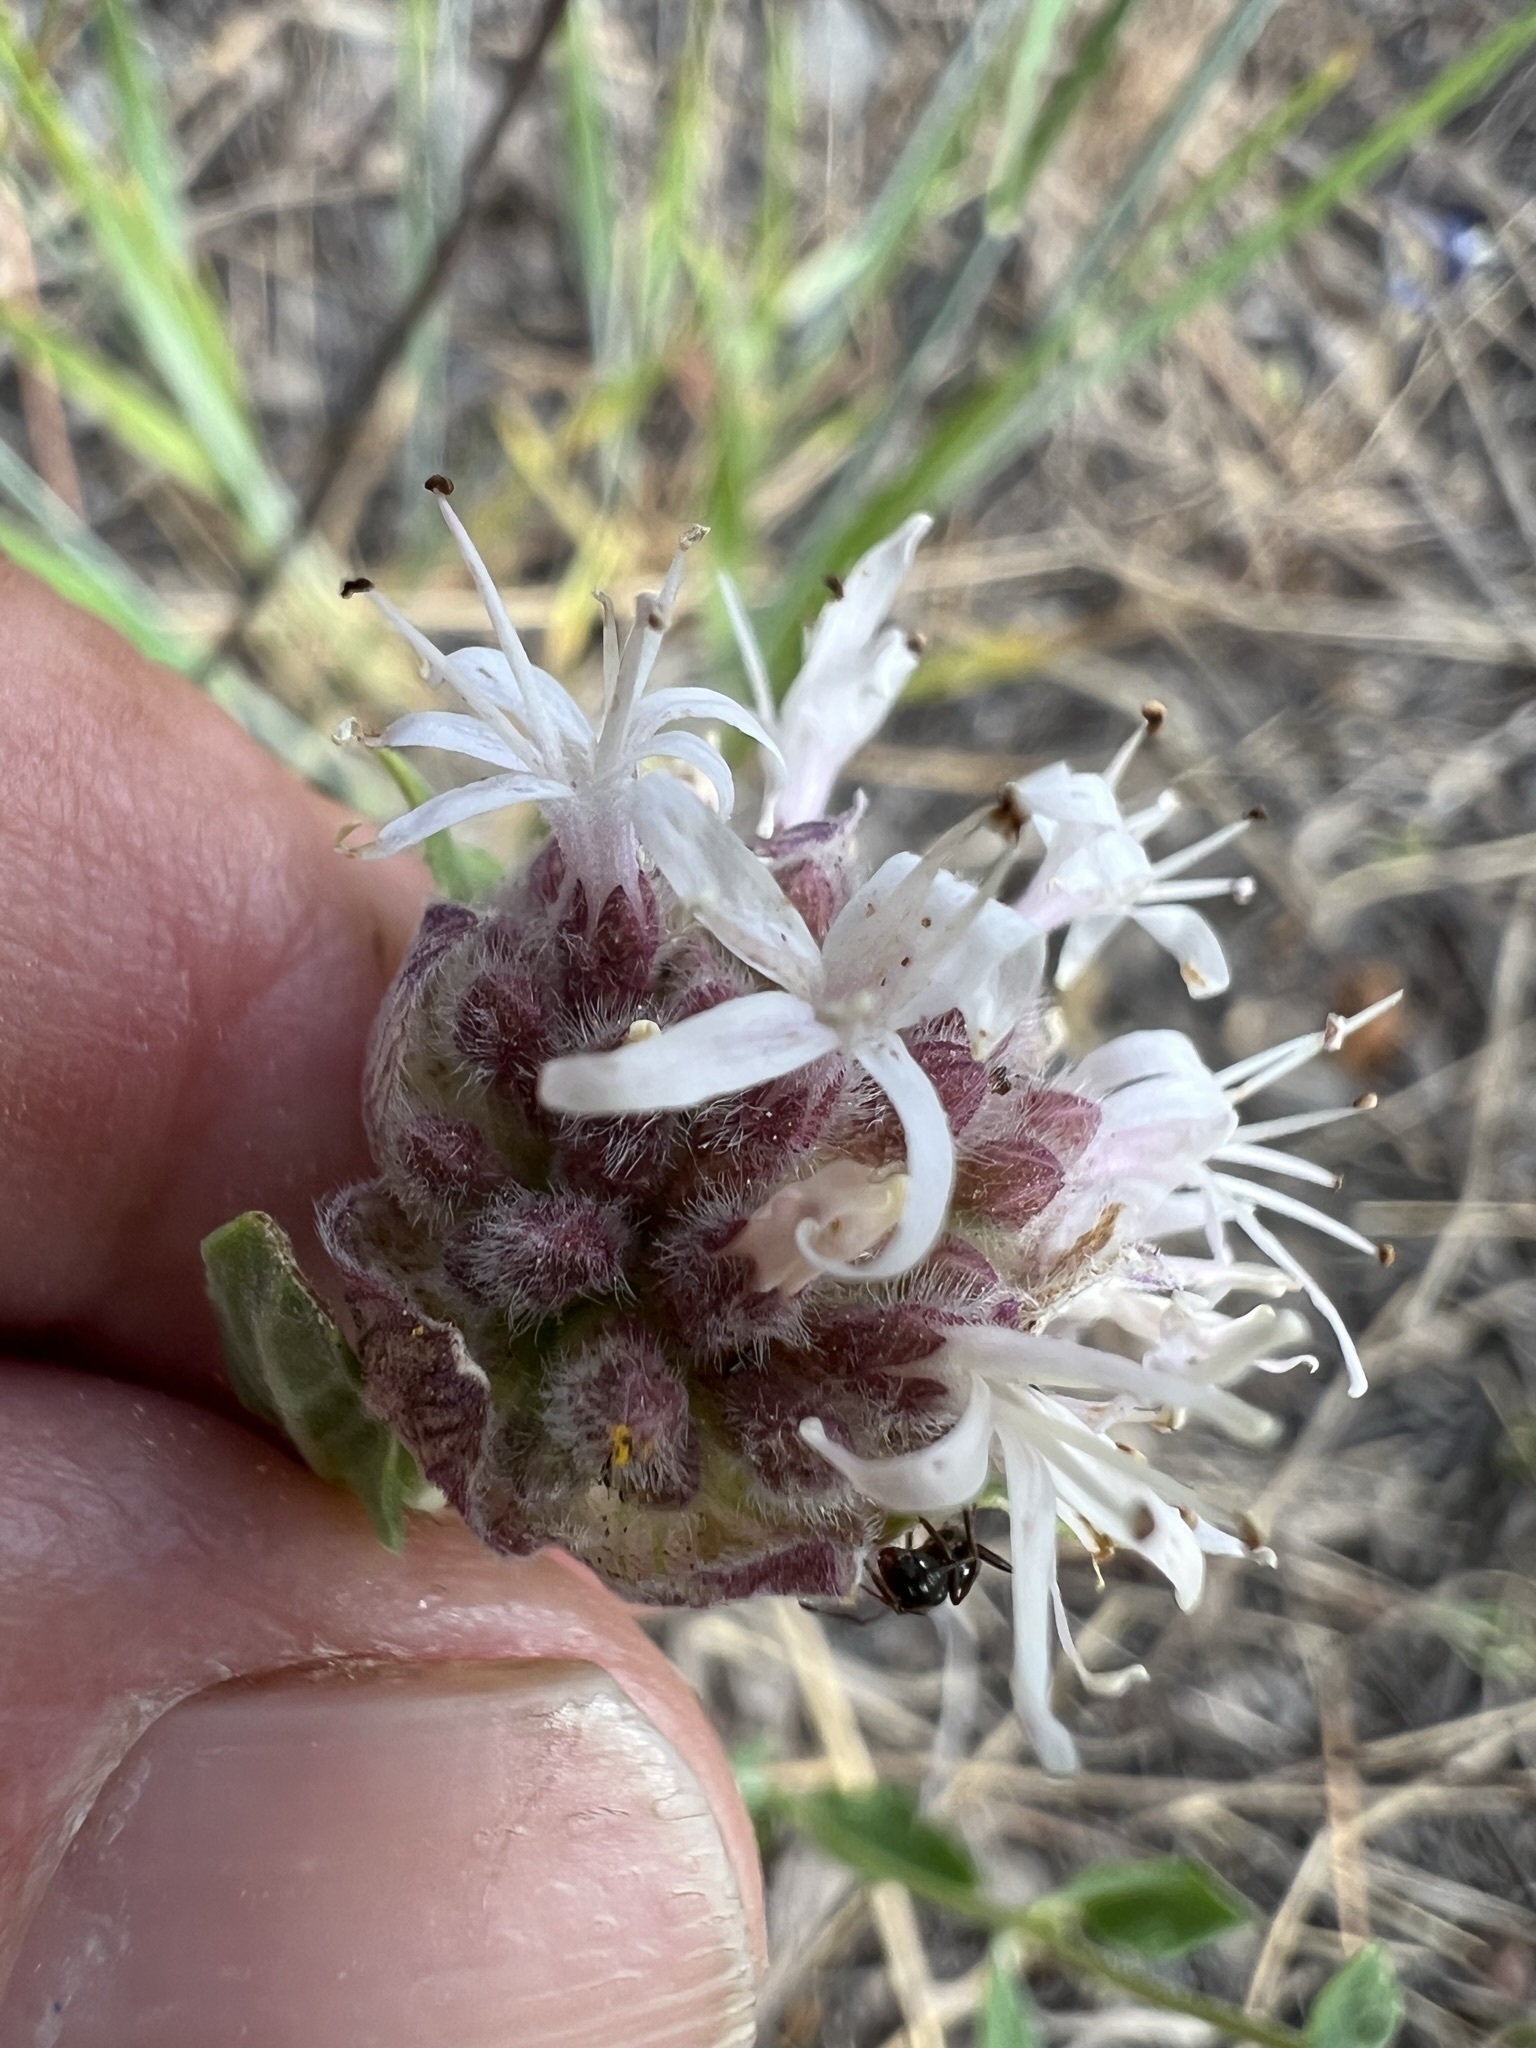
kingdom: Plantae
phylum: Tracheophyta
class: Magnoliopsida
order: Lamiales
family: Lamiaceae
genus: Monardella
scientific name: Monardella odoratissima
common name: Pacific monardella
